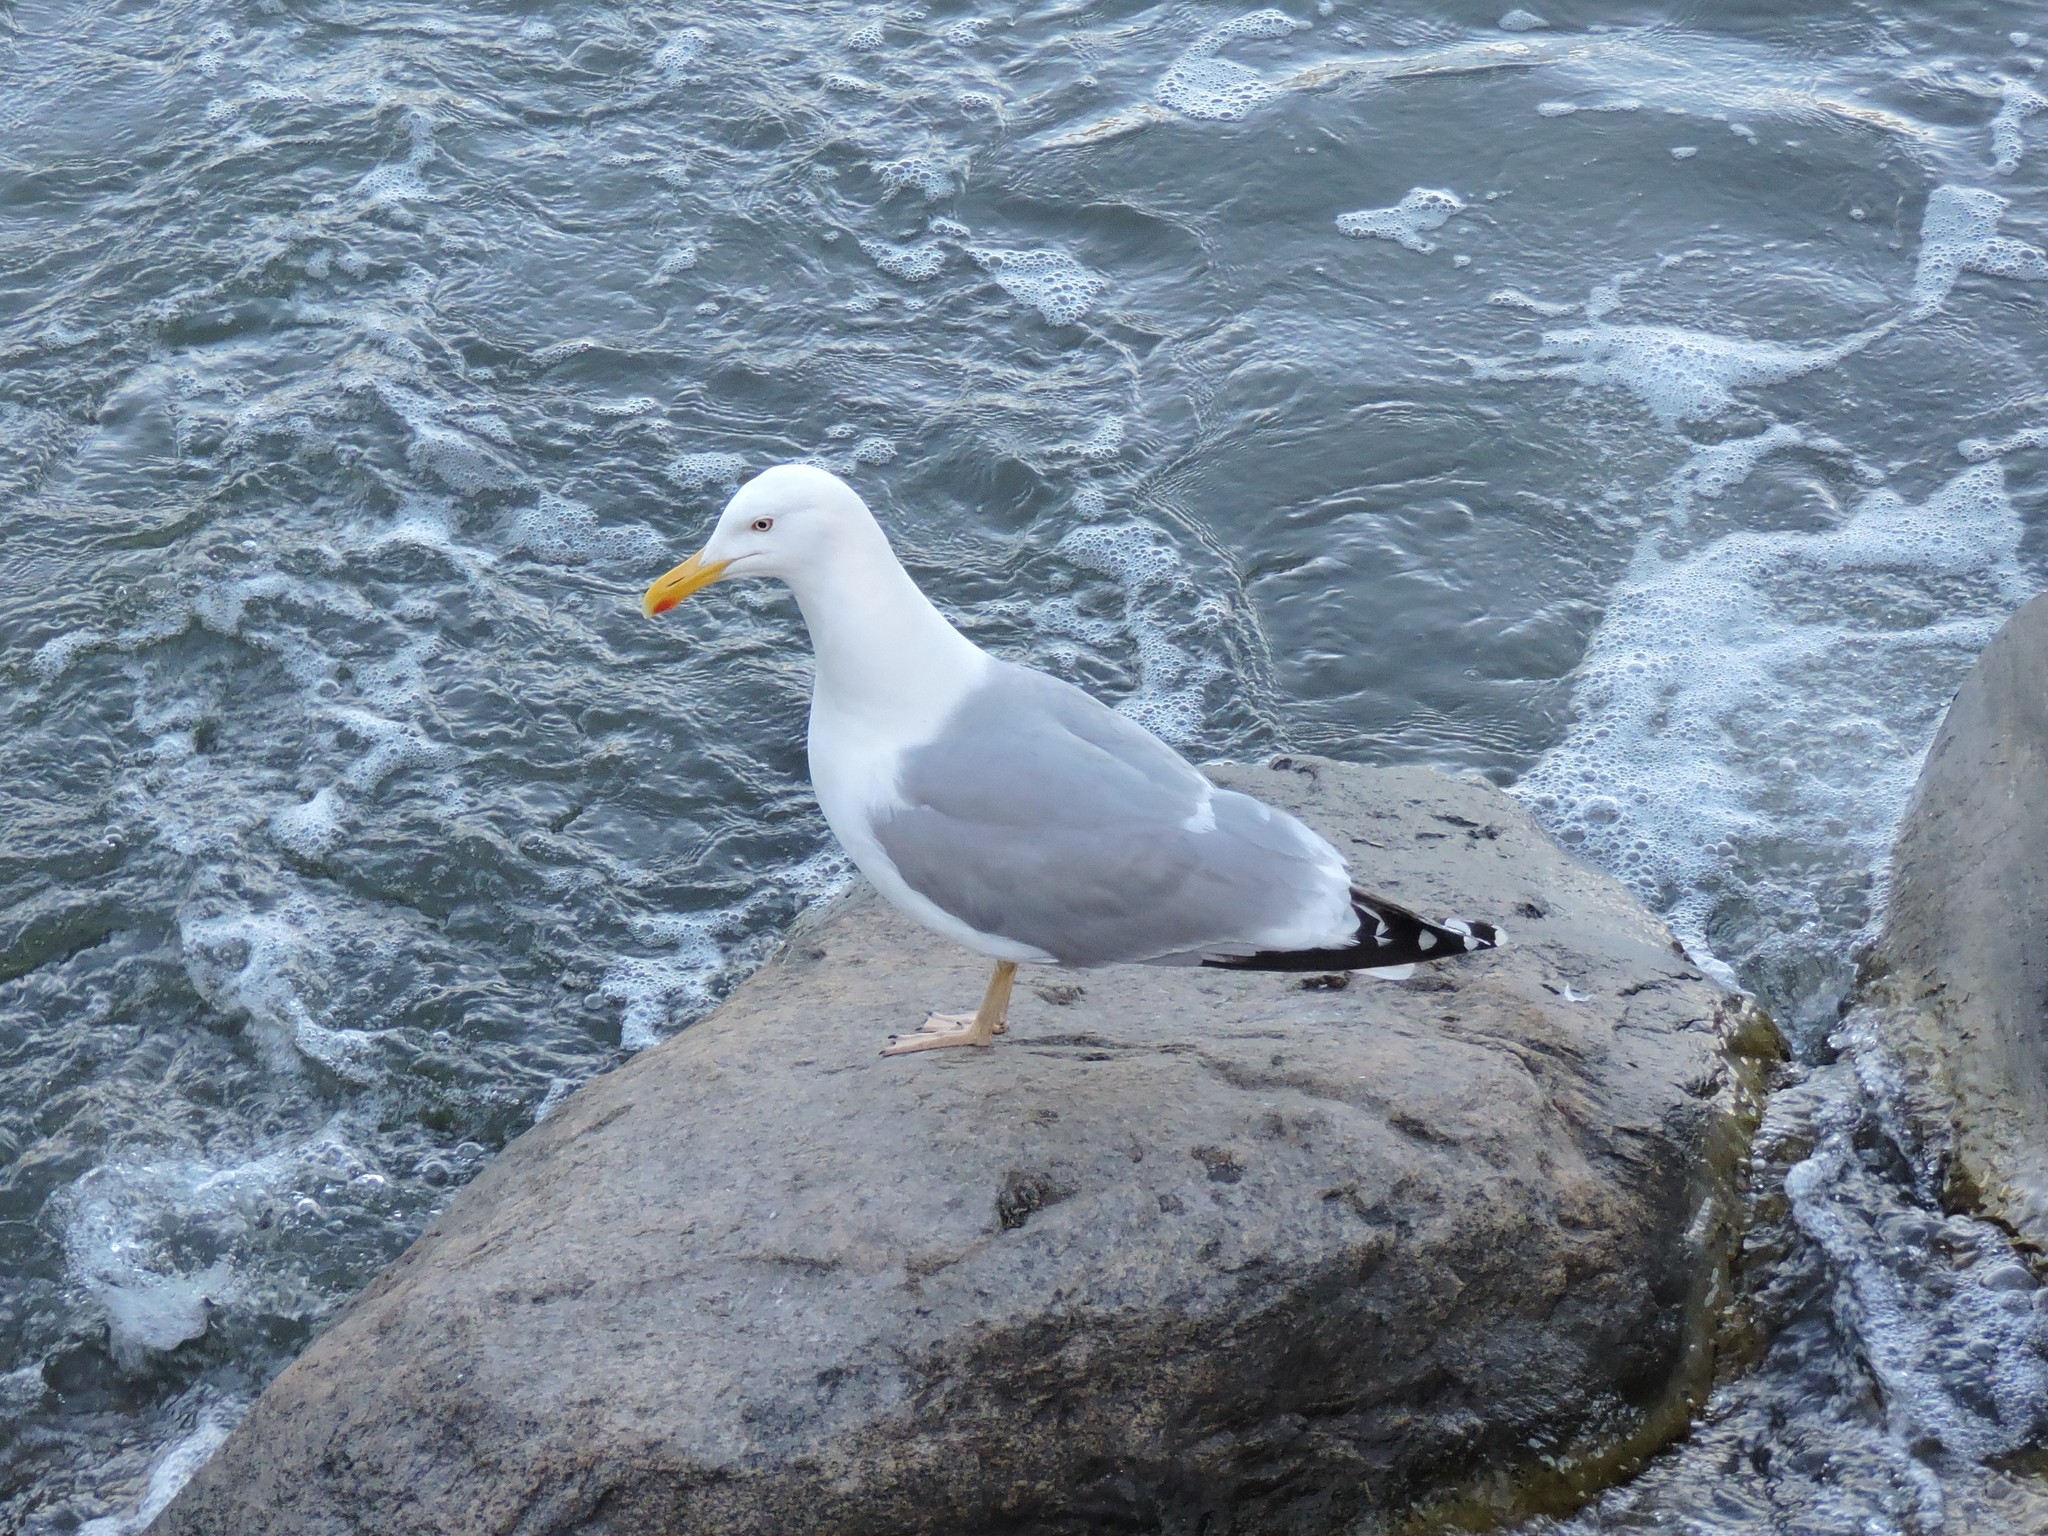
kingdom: Animalia
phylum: Chordata
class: Aves
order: Charadriiformes
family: Laridae
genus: Larus
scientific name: Larus argentatus
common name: Herring gull
